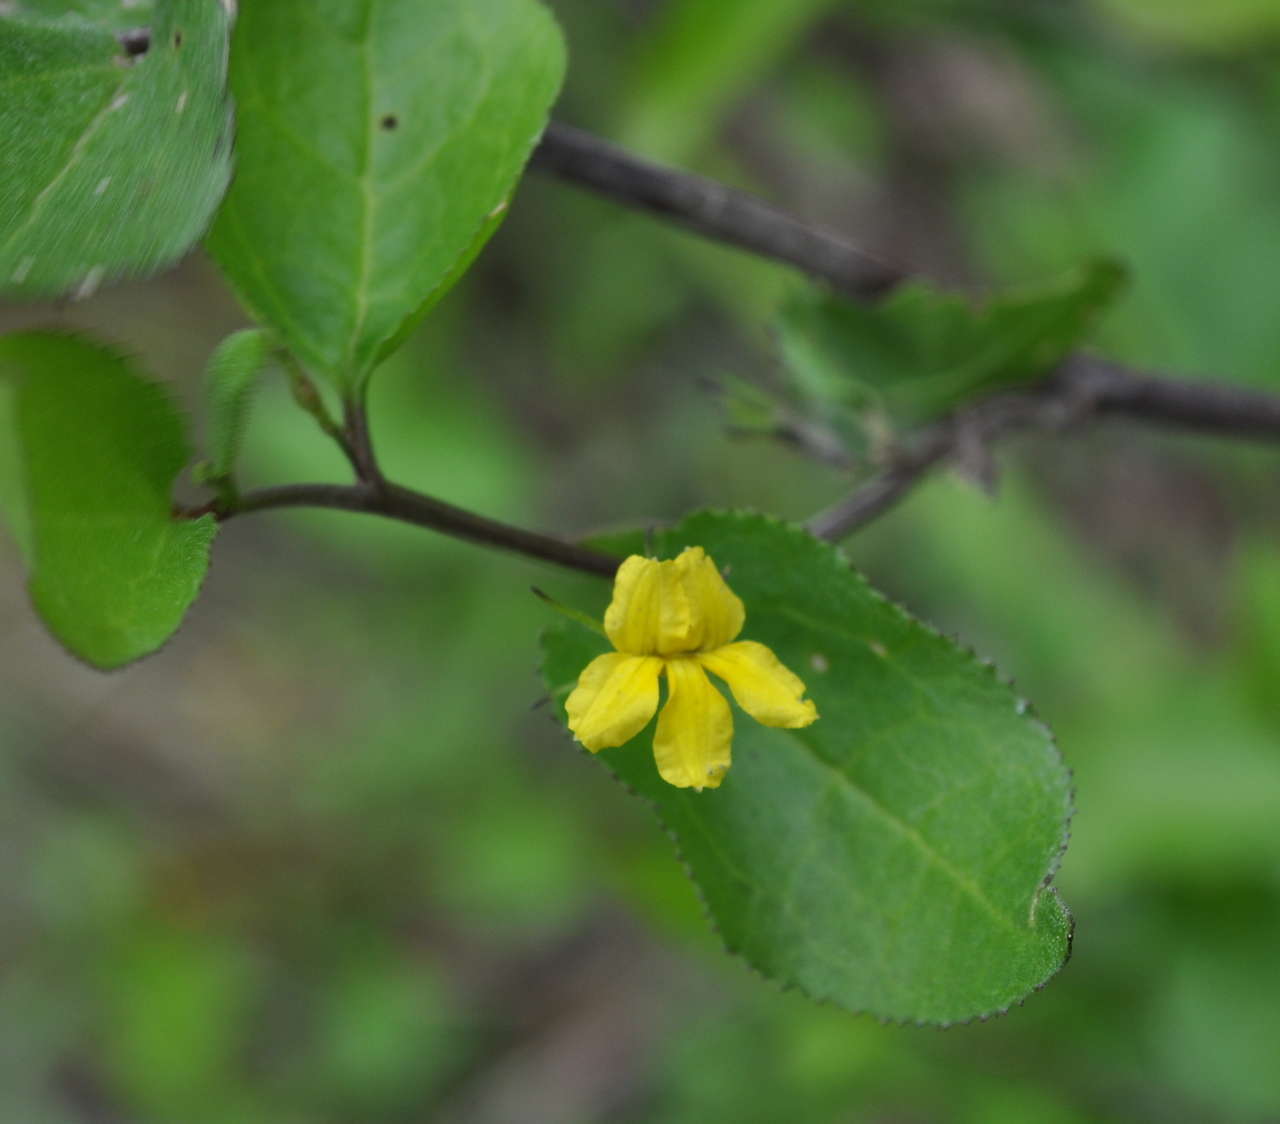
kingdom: Plantae
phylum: Tracheophyta
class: Magnoliopsida
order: Asterales
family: Goodeniaceae
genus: Goodenia
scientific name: Goodenia ovata
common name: Hop goodenia
